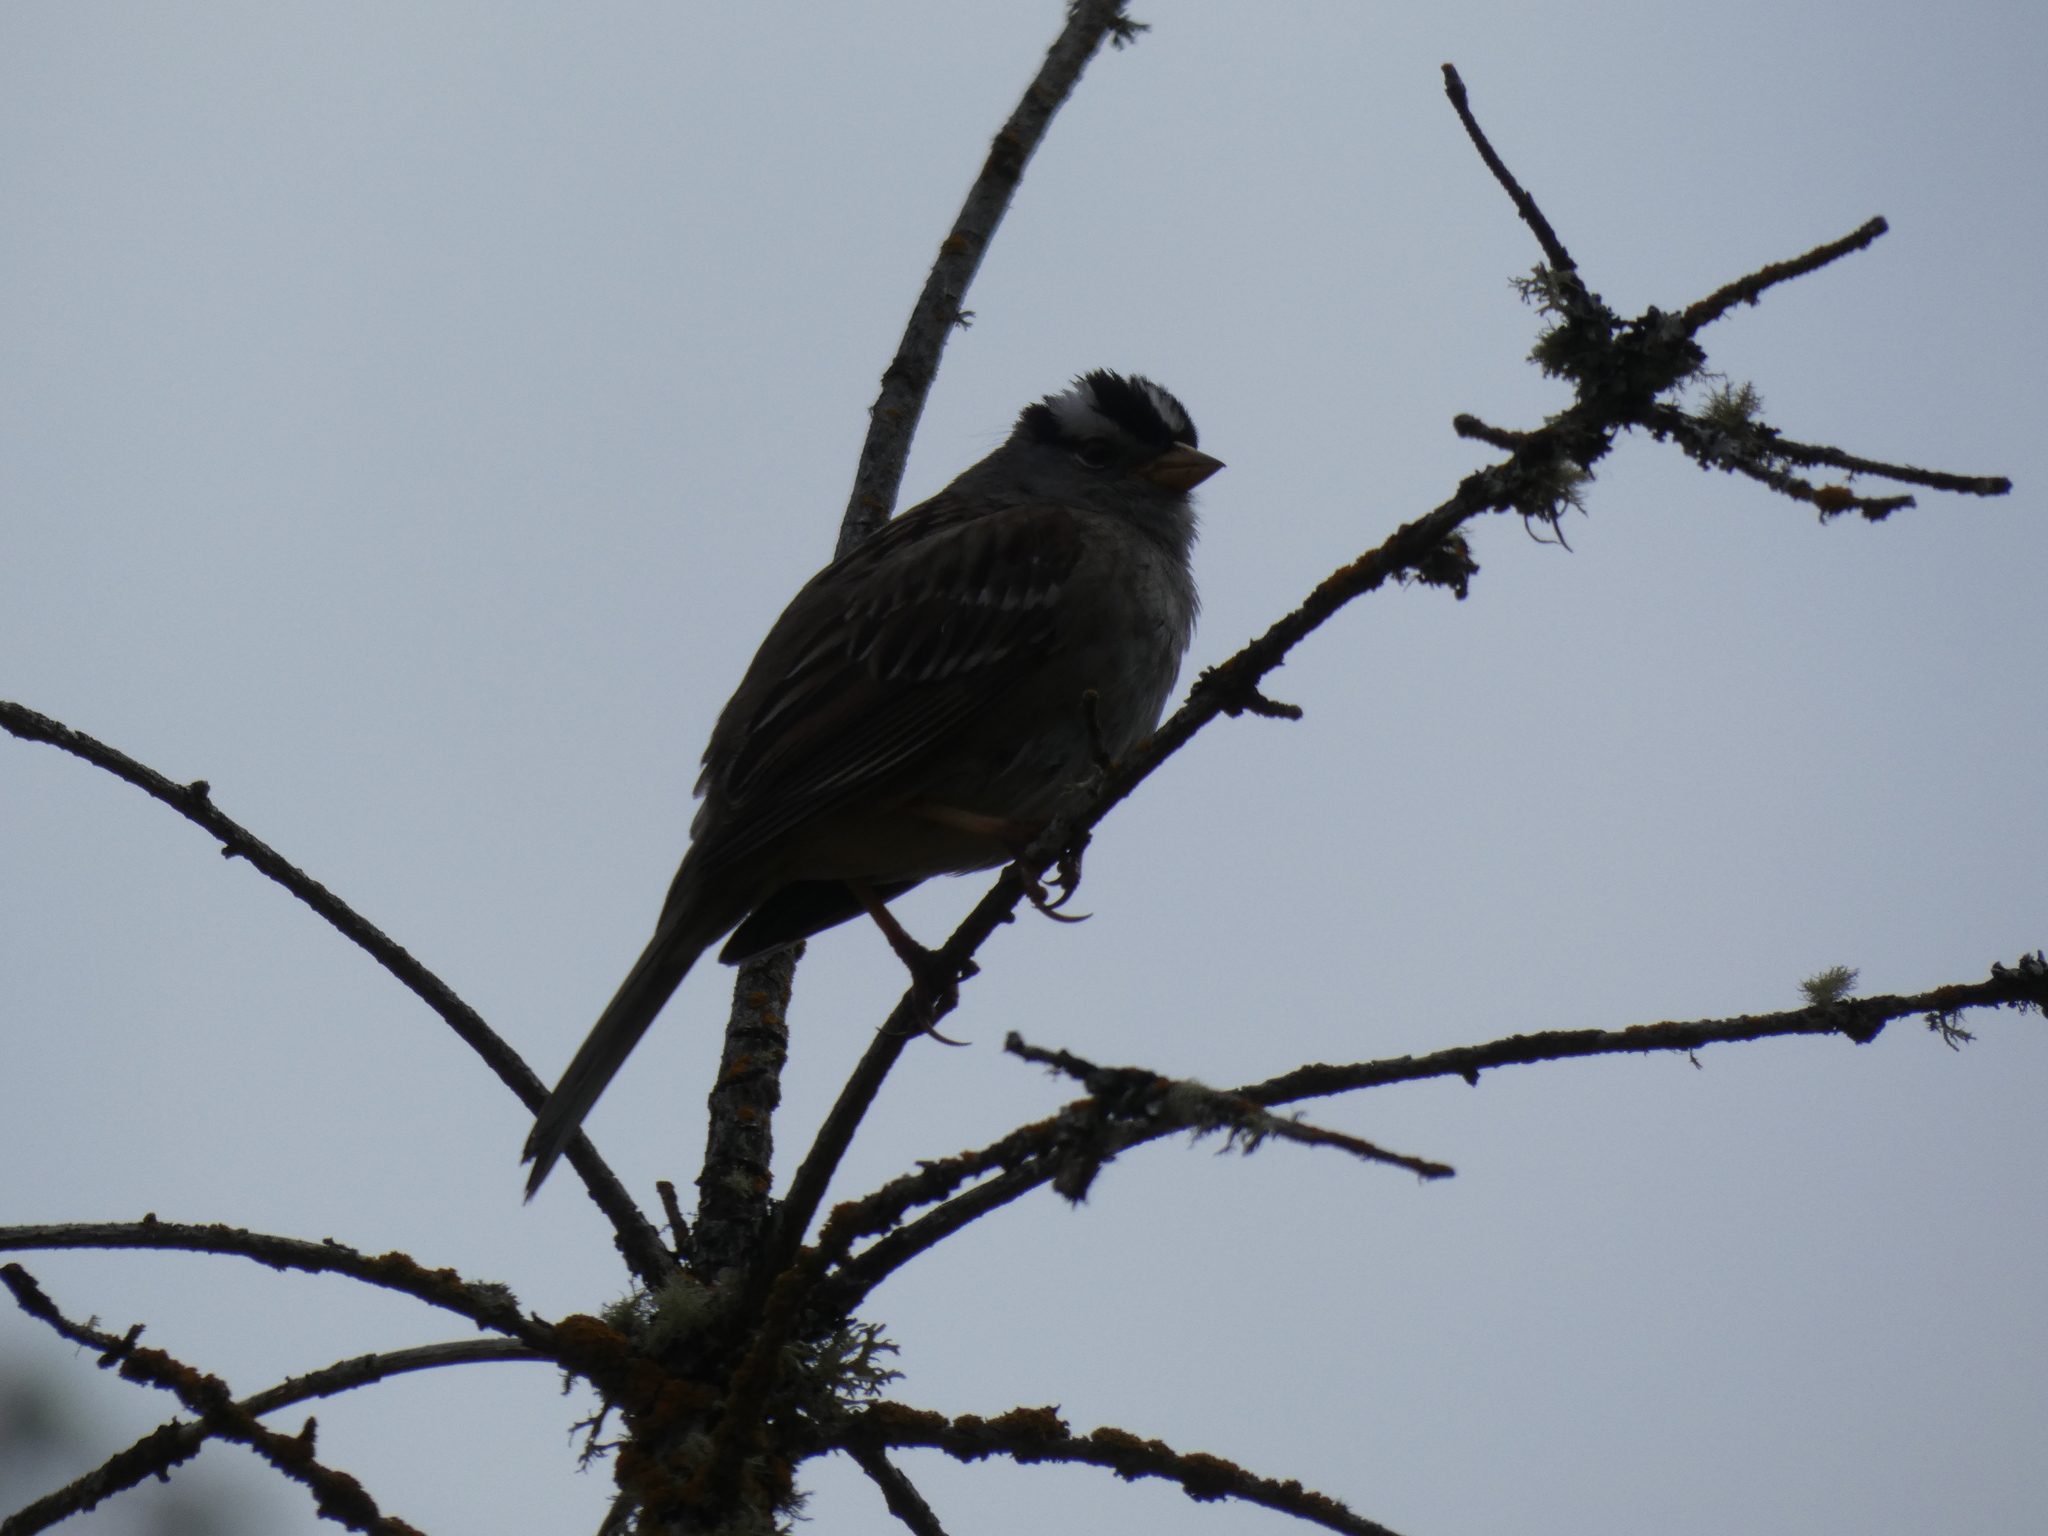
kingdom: Animalia
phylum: Chordata
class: Aves
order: Passeriformes
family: Passerellidae
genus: Zonotrichia
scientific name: Zonotrichia leucophrys
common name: White-crowned sparrow
